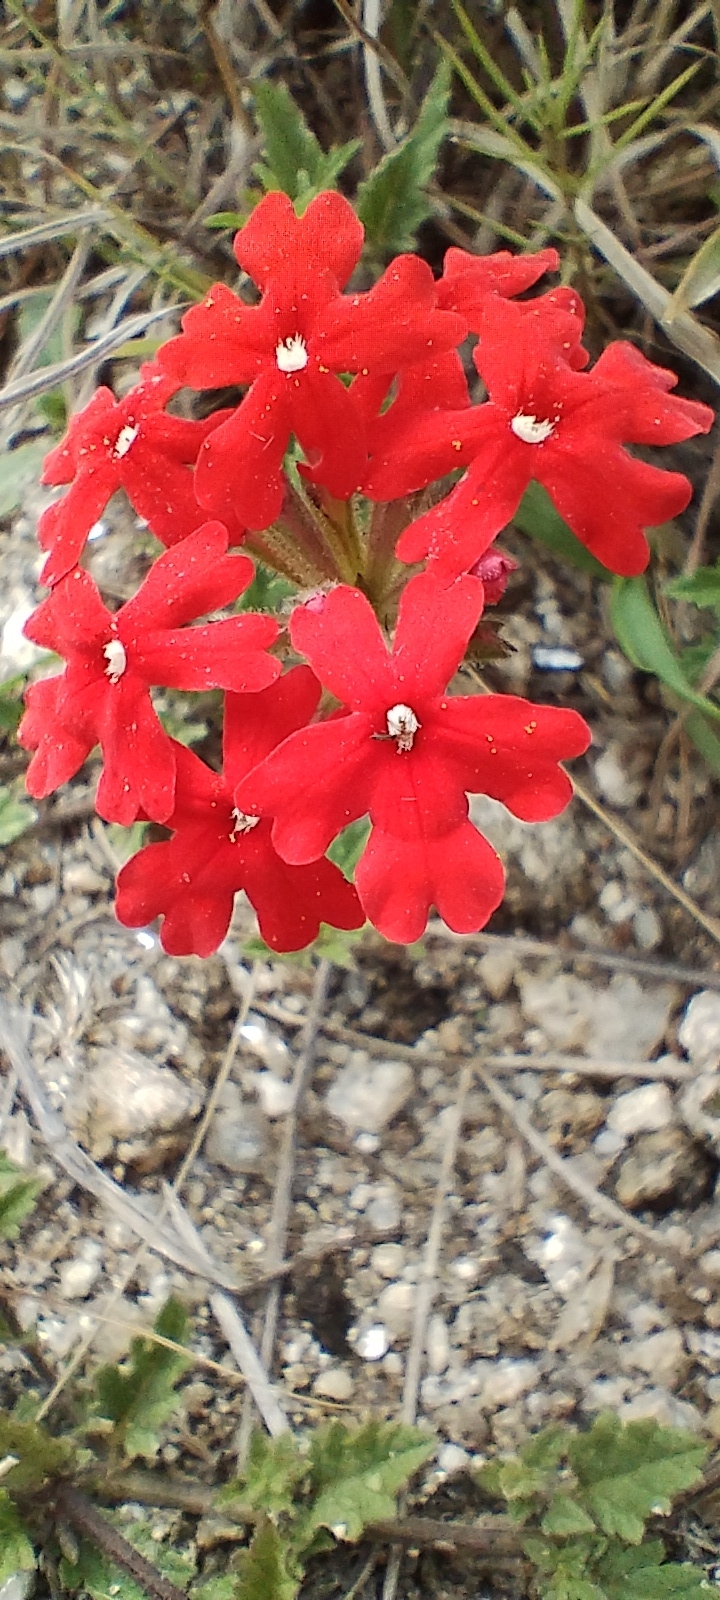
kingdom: Plantae
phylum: Tracheophyta
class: Magnoliopsida
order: Lamiales
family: Verbenaceae
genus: Verbena
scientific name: Verbena peruviana
